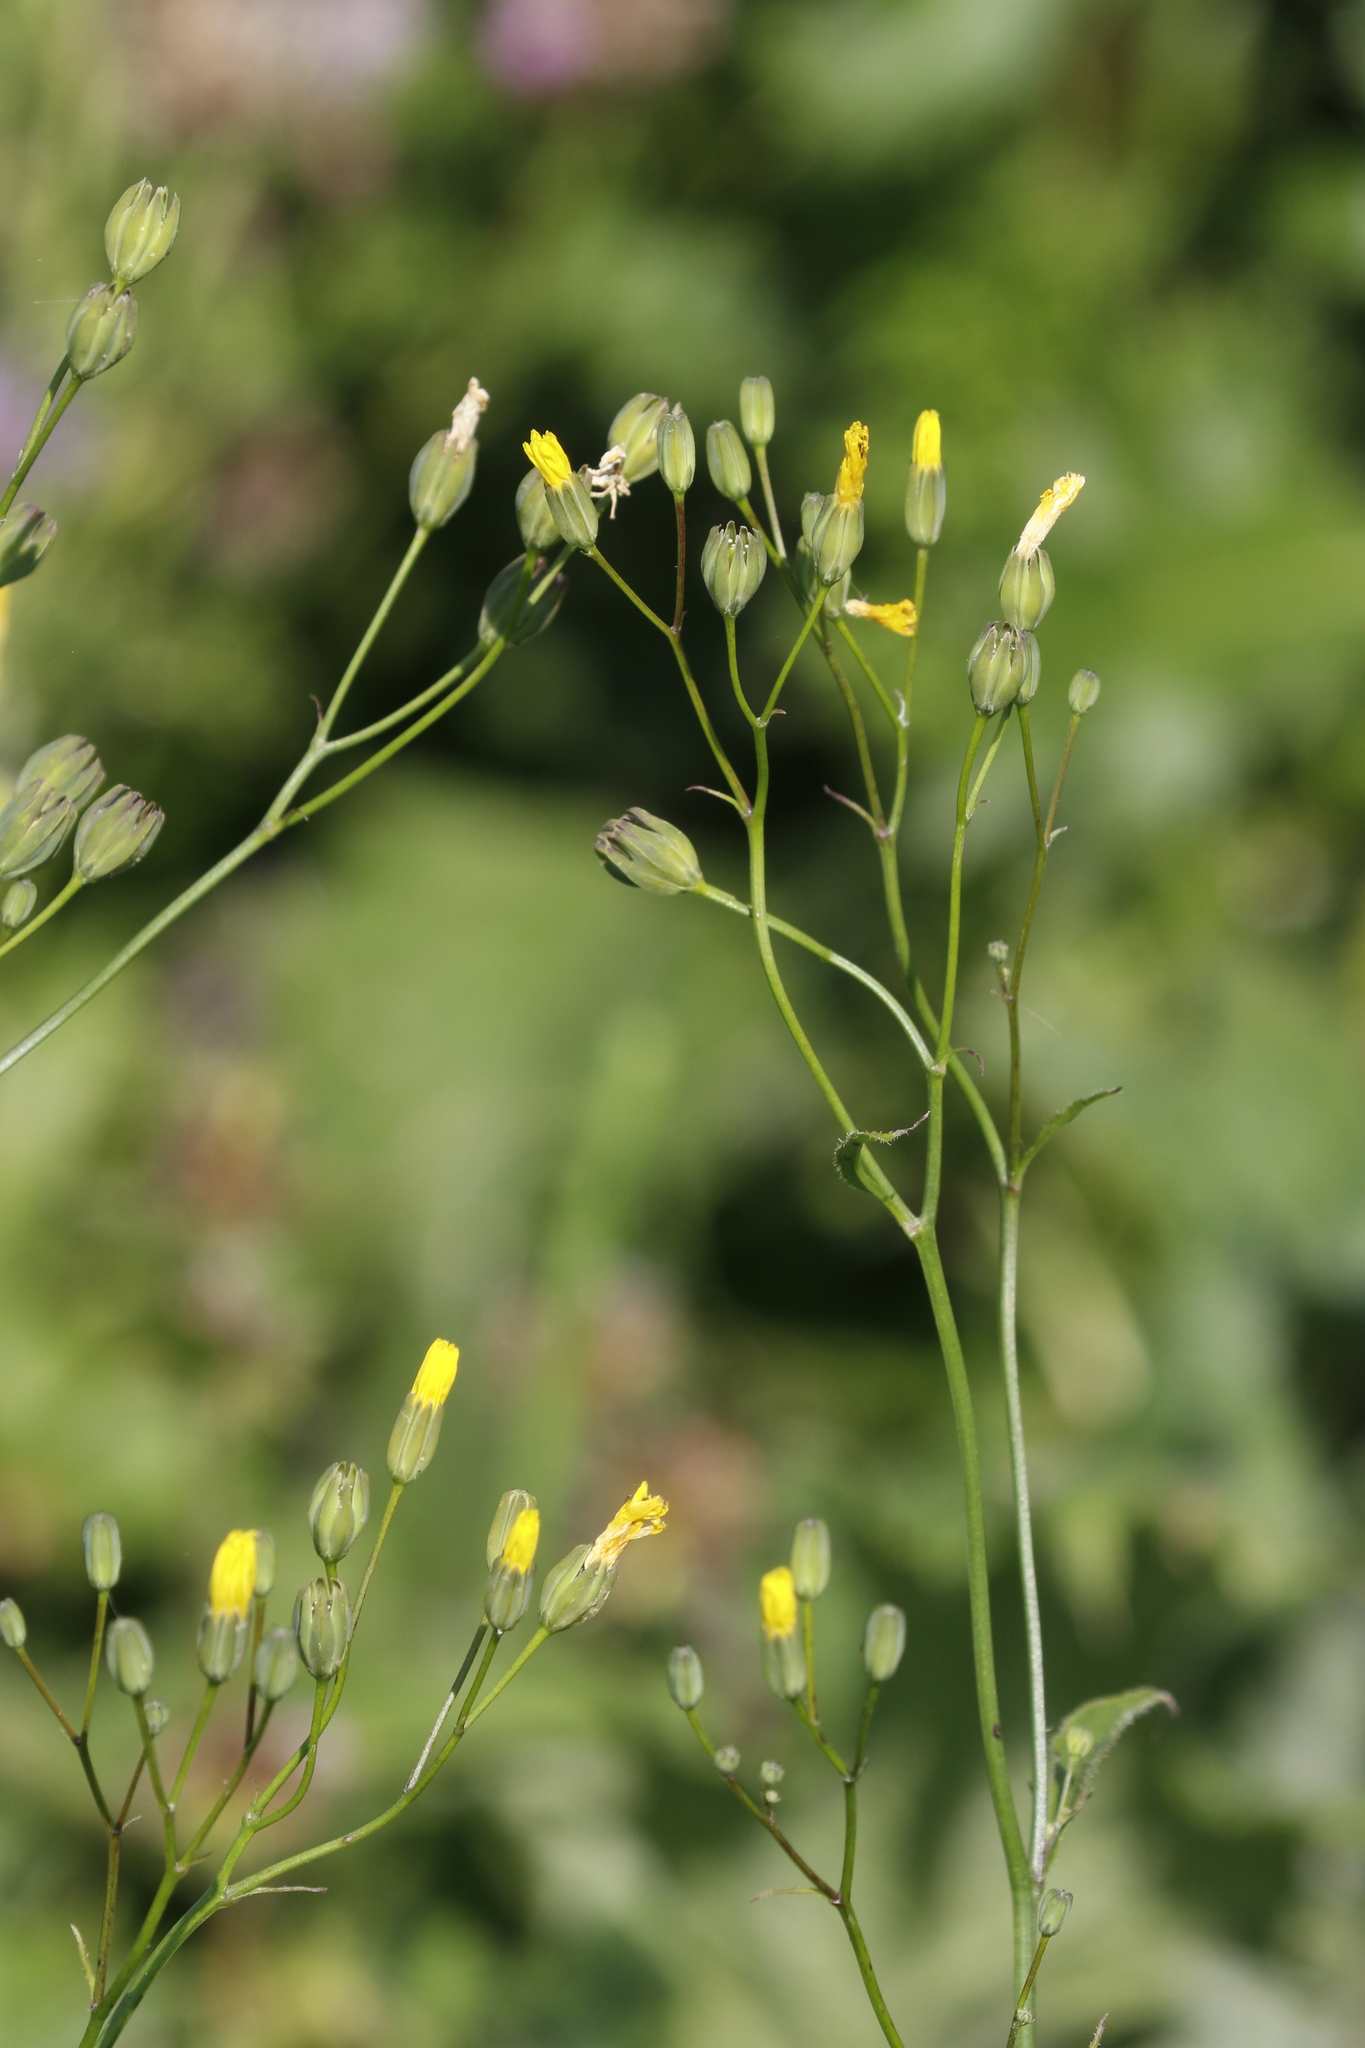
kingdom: Plantae
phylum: Tracheophyta
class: Magnoliopsida
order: Asterales
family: Asteraceae
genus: Lapsana
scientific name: Lapsana communis
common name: Nipplewort
